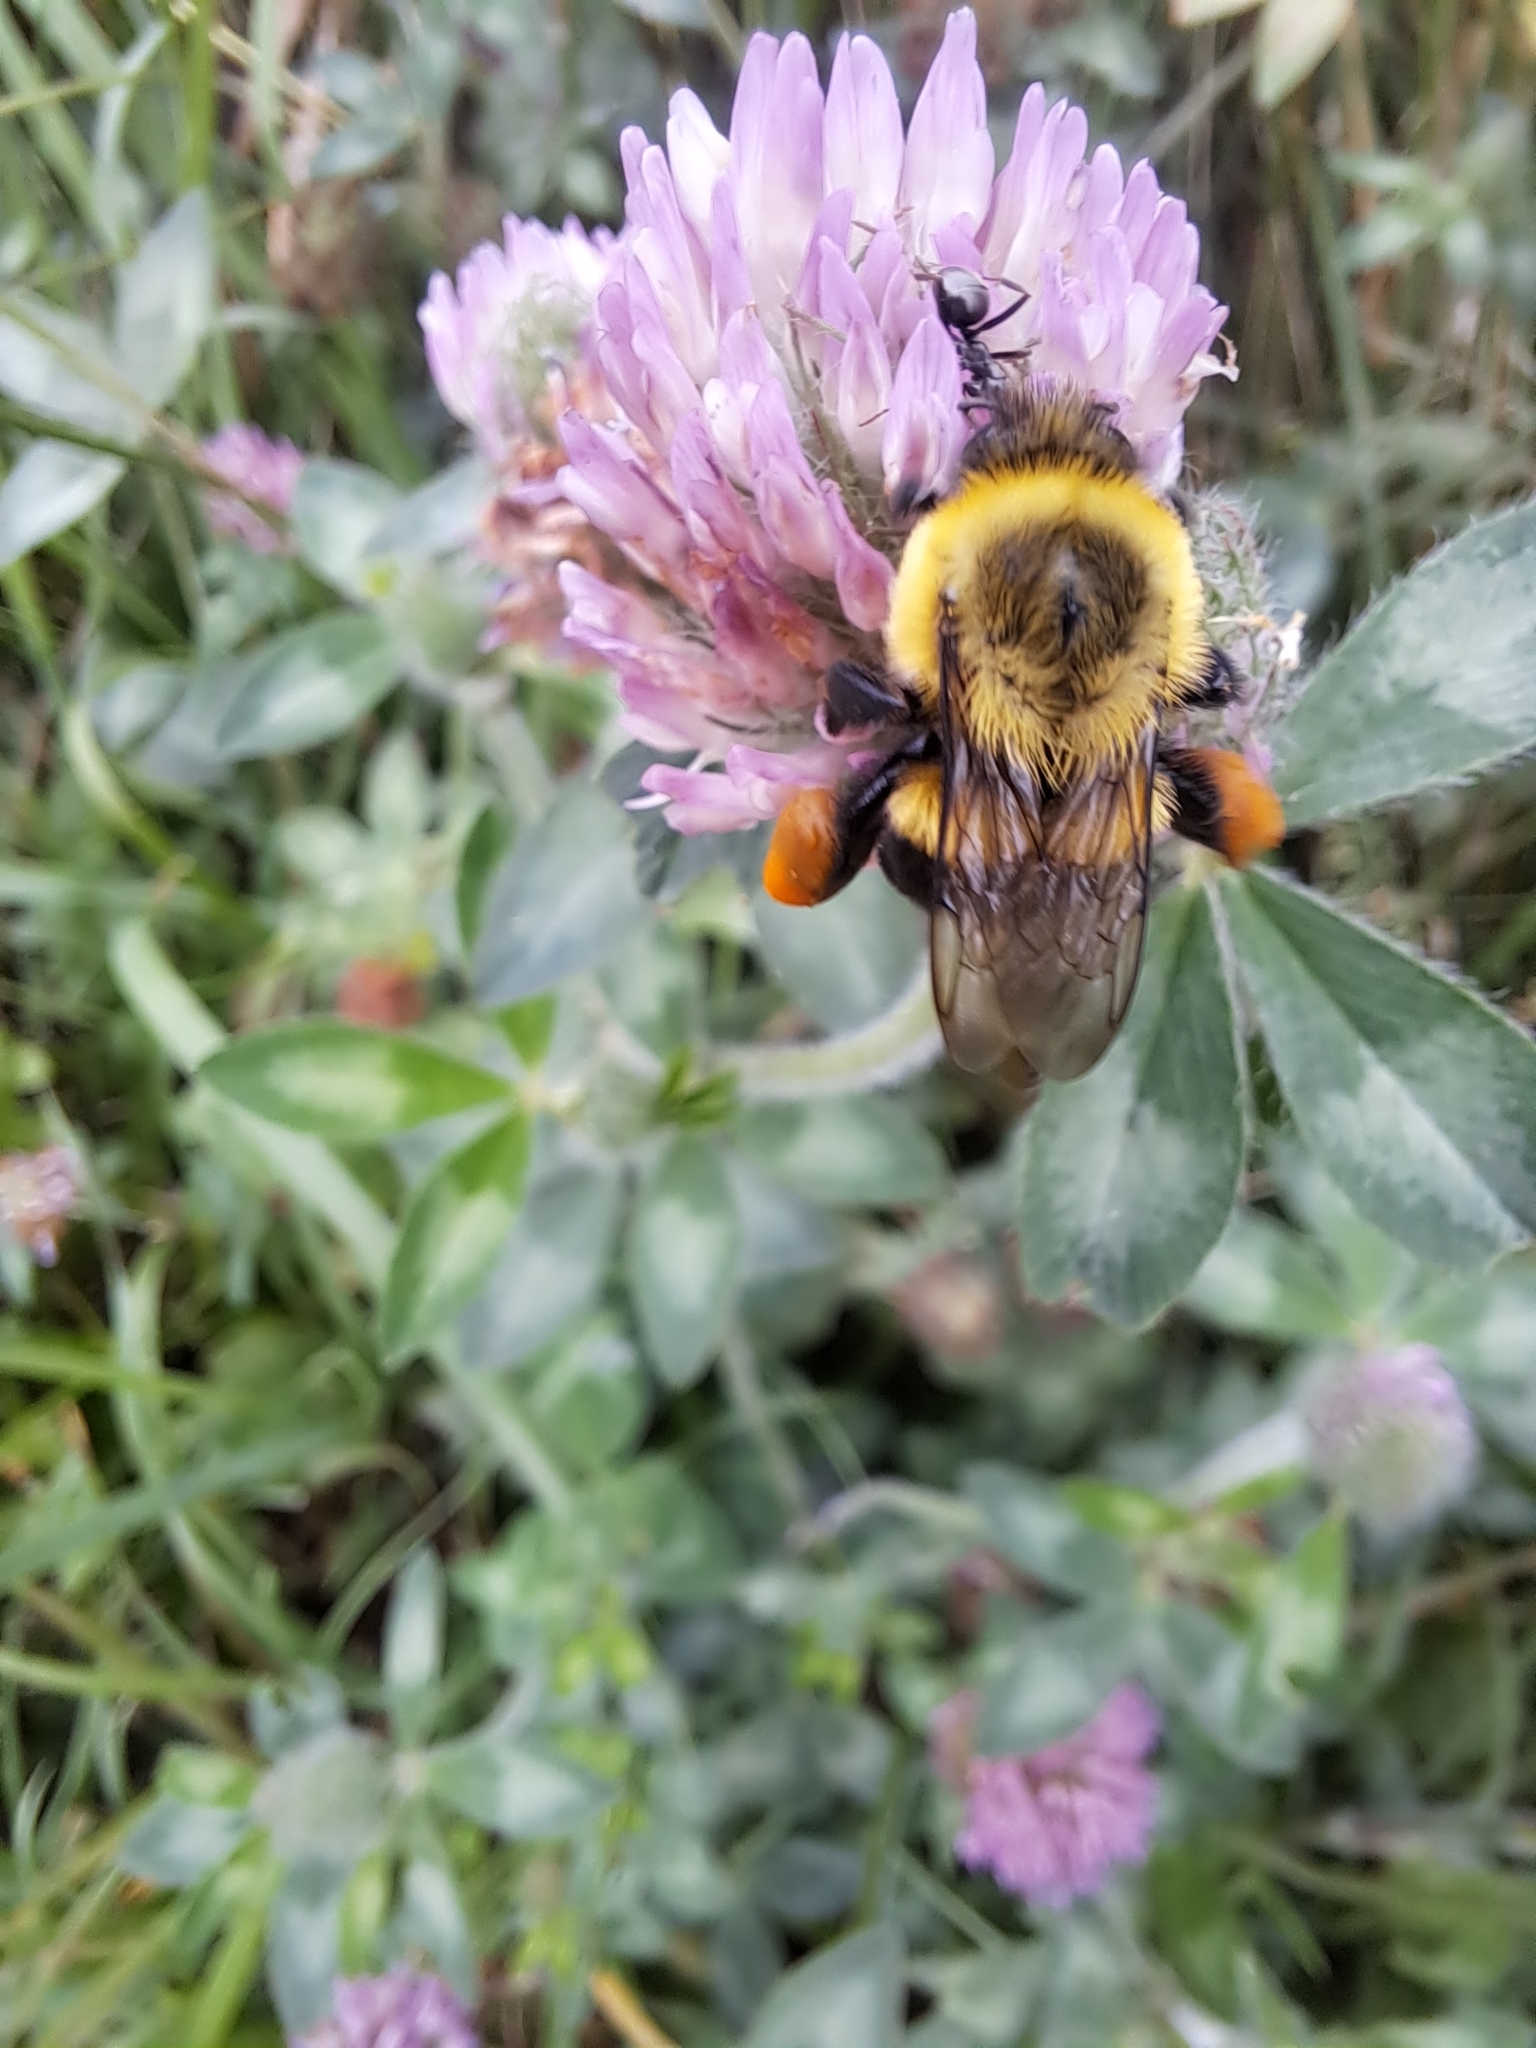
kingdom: Animalia
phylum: Arthropoda
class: Insecta
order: Hymenoptera
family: Apidae
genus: Bombus
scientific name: Bombus impatiens
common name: Common eastern bumble bee
